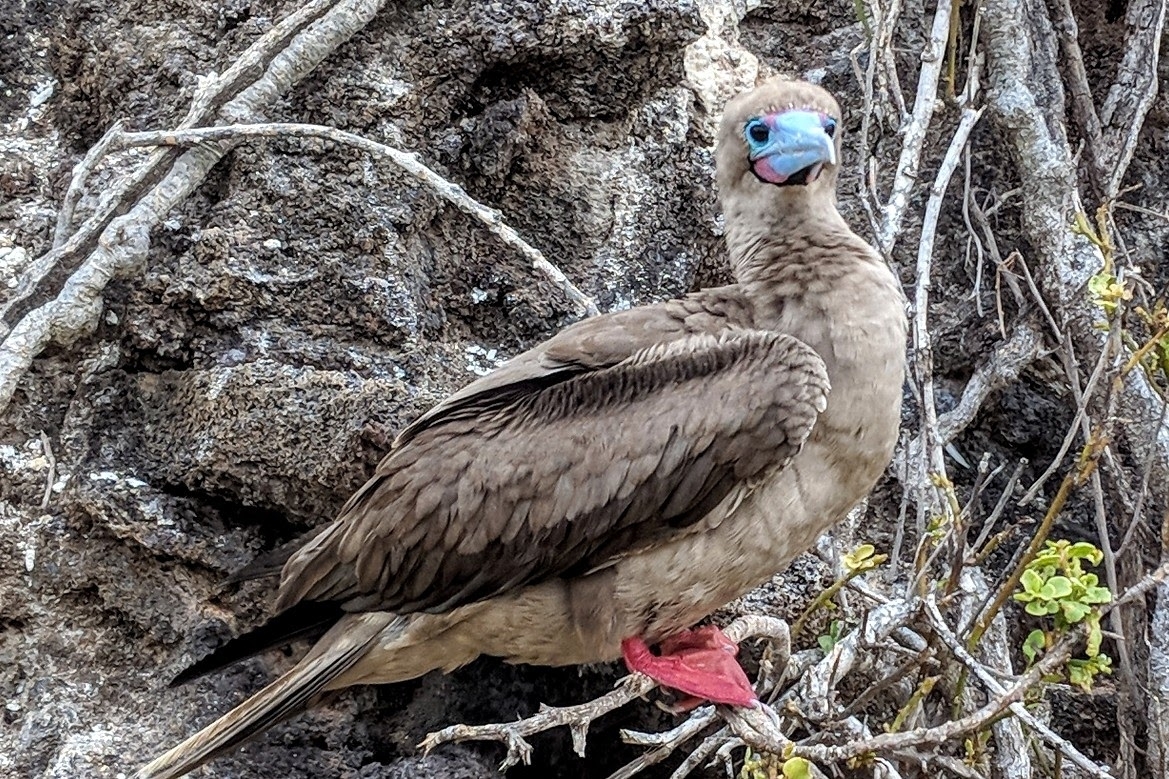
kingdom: Animalia
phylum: Chordata
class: Aves
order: Suliformes
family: Sulidae
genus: Sula
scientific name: Sula sula
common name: Red-footed booby
